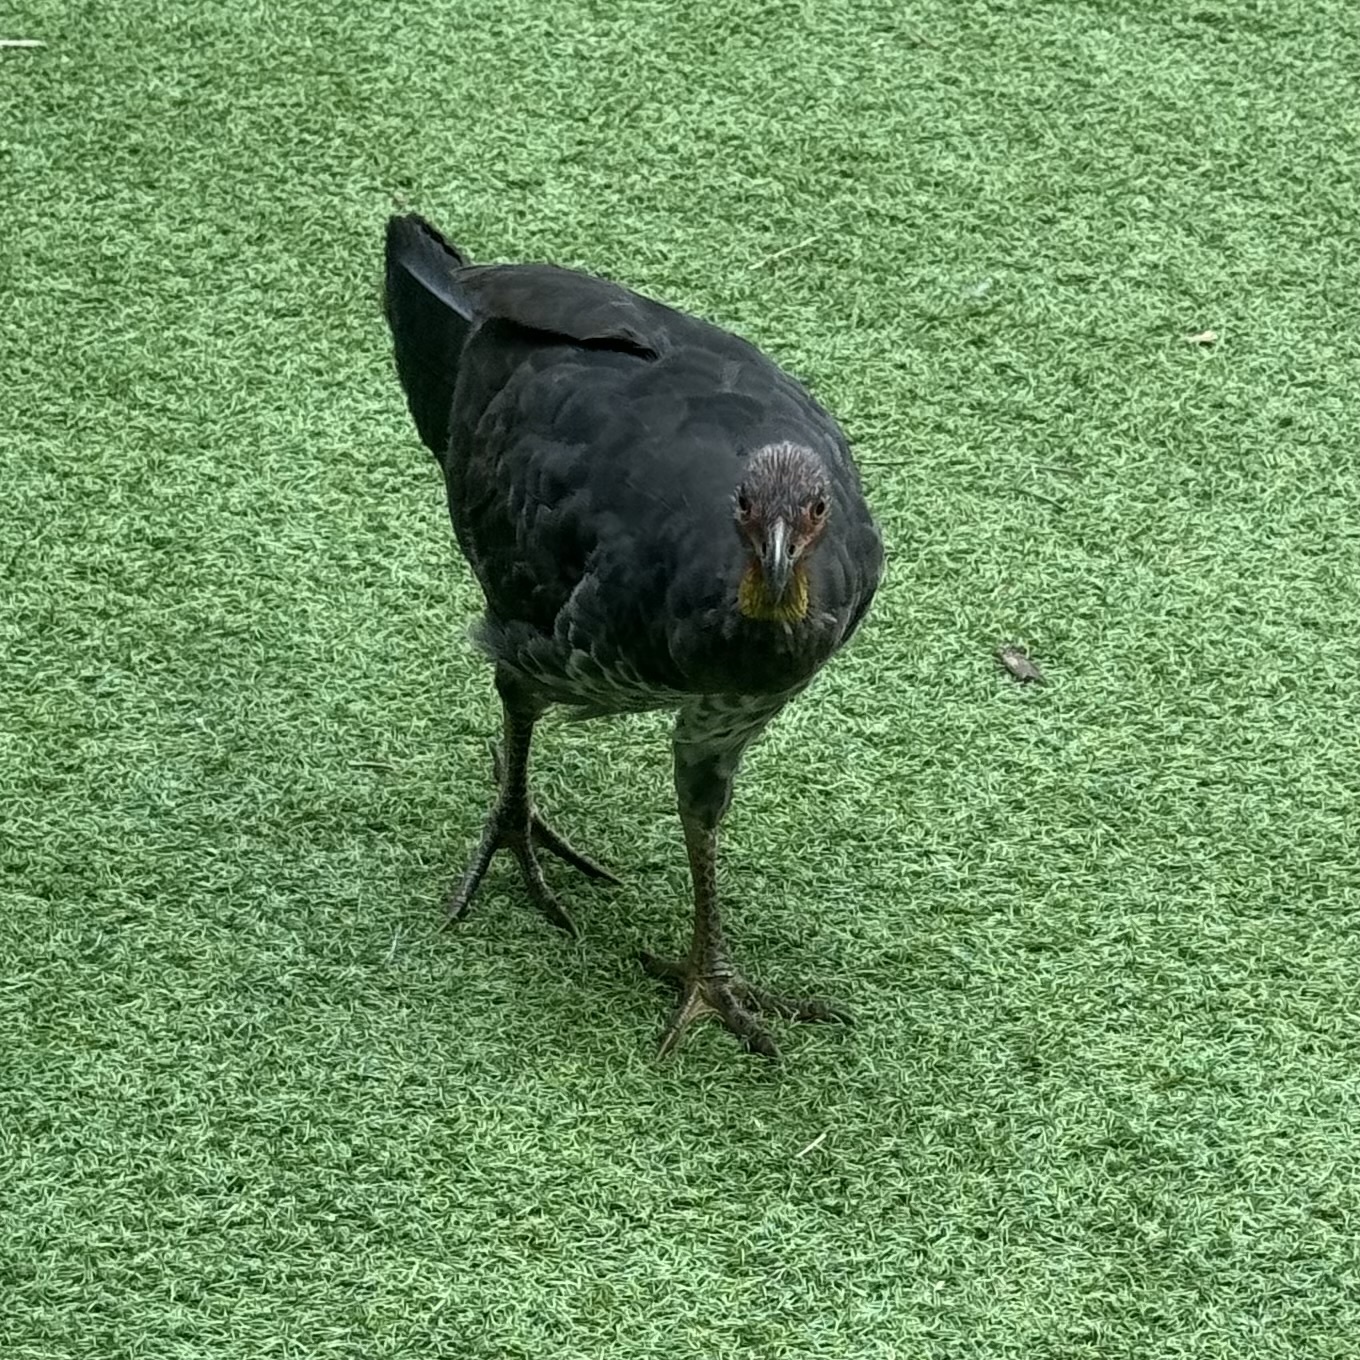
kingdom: Animalia
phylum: Chordata
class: Aves
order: Galliformes
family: Megapodiidae
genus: Alectura
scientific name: Alectura lathami
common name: Australian brushturkey
